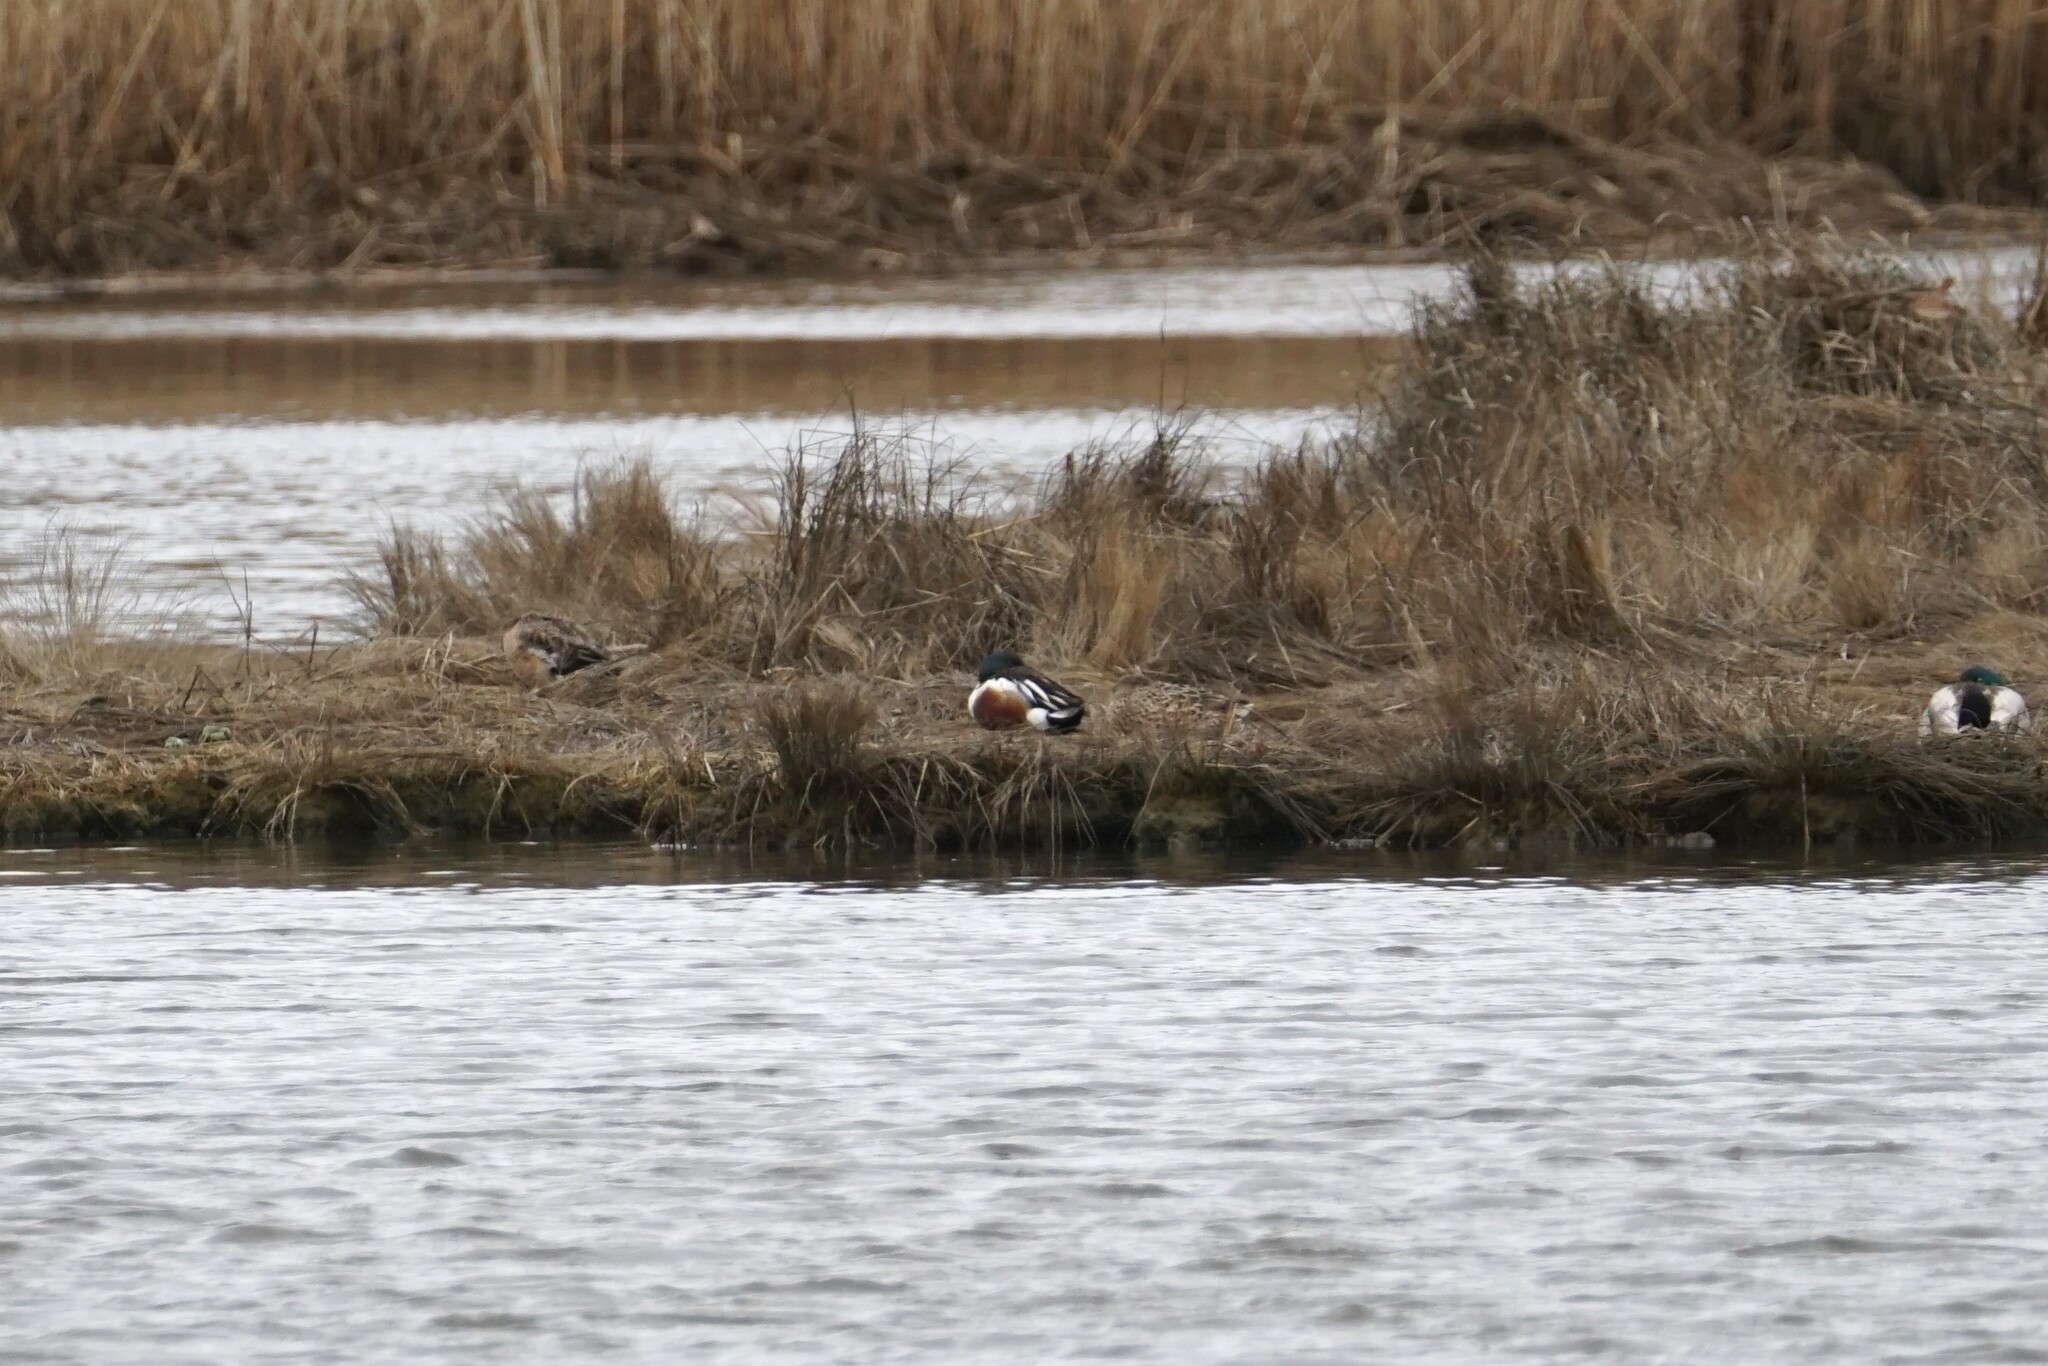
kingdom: Animalia
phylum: Chordata
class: Aves
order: Anseriformes
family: Anatidae
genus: Spatula
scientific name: Spatula clypeata
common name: Northern shoveler
